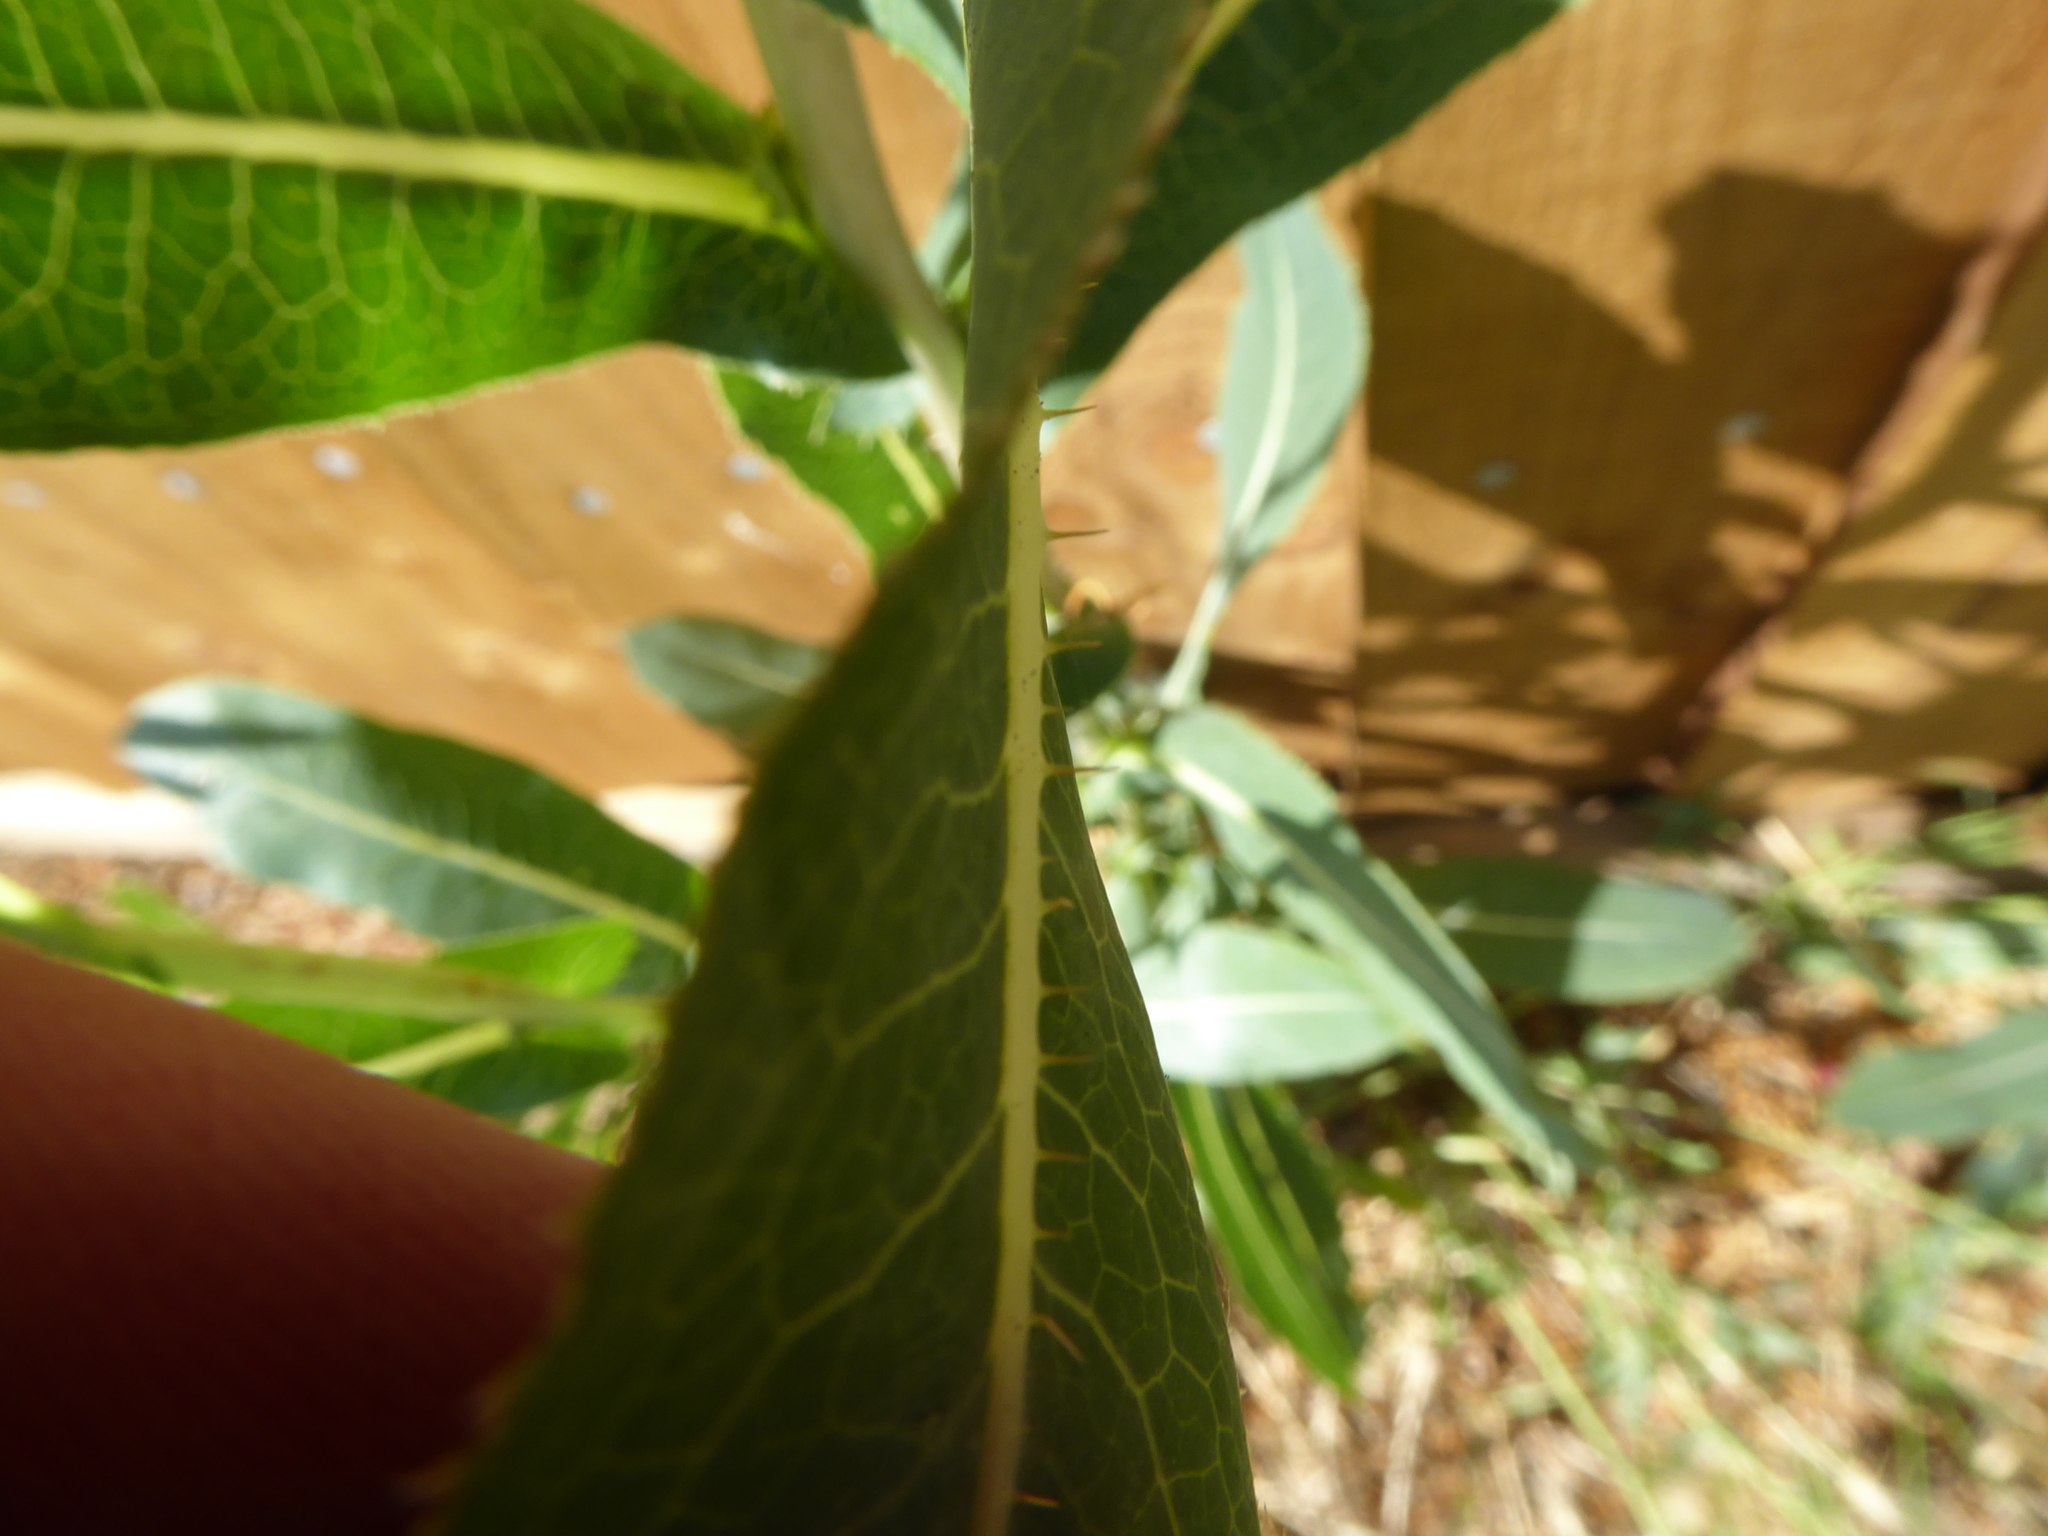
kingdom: Plantae
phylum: Tracheophyta
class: Magnoliopsida
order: Asterales
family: Asteraceae
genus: Lactuca
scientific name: Lactuca serriola
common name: Prickly lettuce
